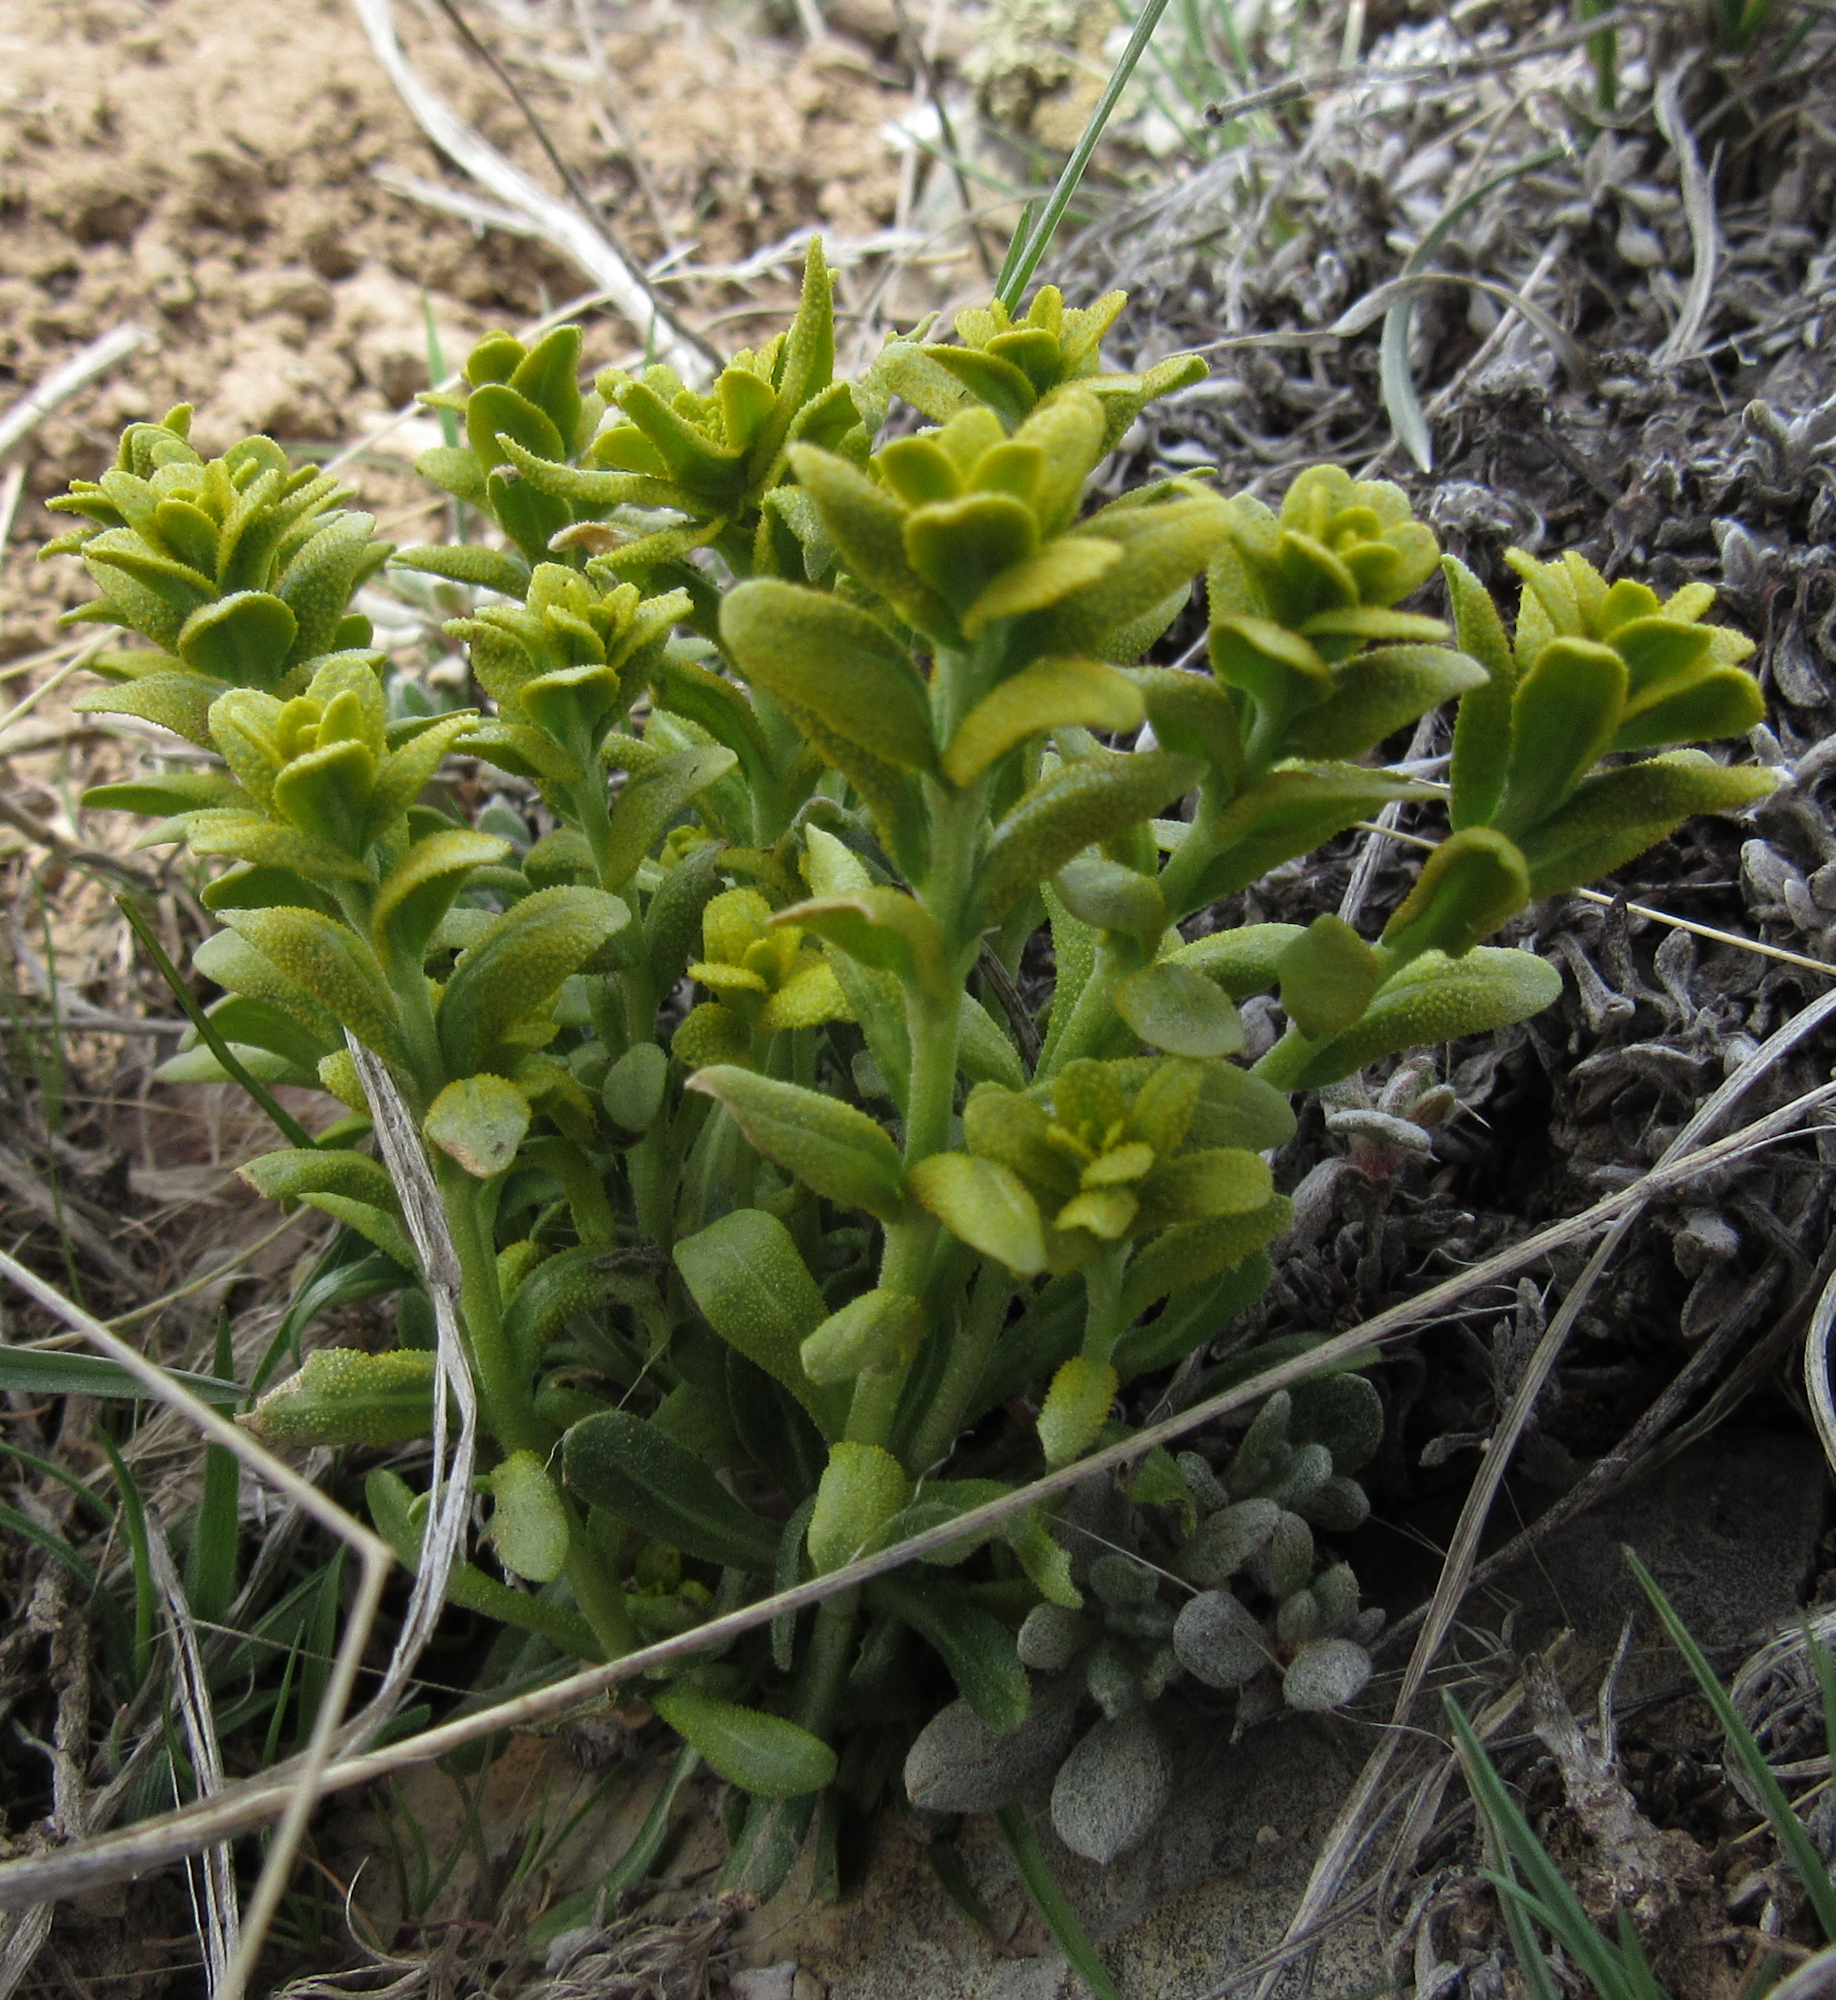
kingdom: Fungi
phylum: Basidiomycota
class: Pucciniomycetes
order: Pucciniales
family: Pucciniaceae
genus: Puccinia
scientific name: Puccinia monoica
